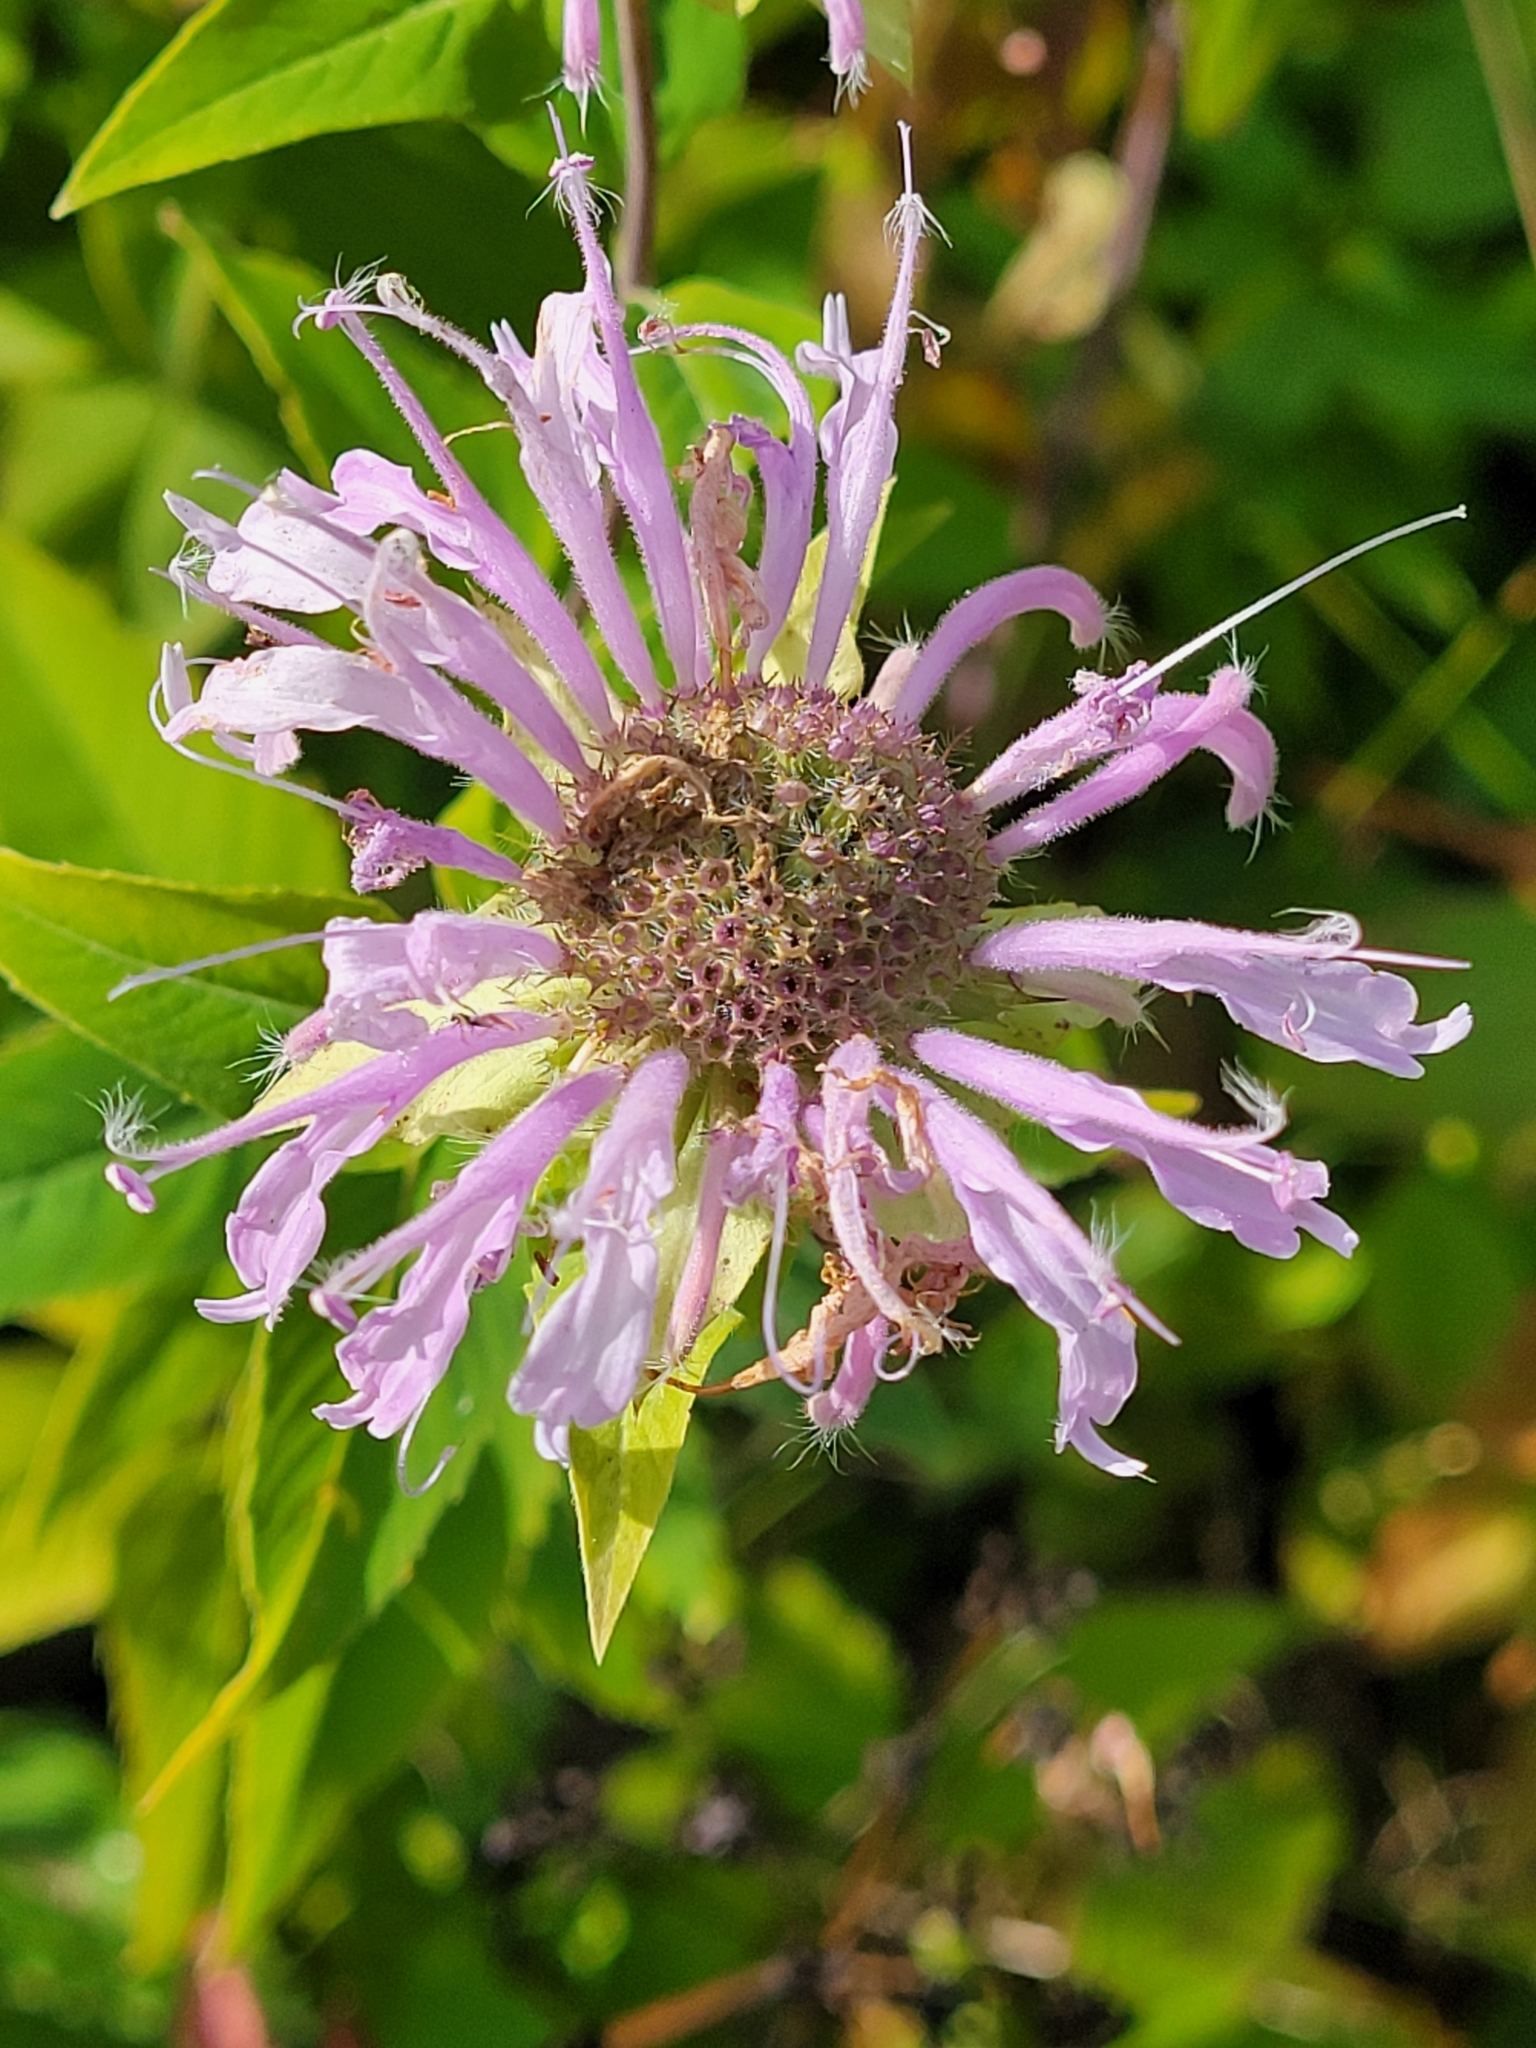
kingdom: Plantae
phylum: Tracheophyta
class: Magnoliopsida
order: Lamiales
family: Lamiaceae
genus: Monarda
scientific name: Monarda fistulosa
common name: Purple beebalm
